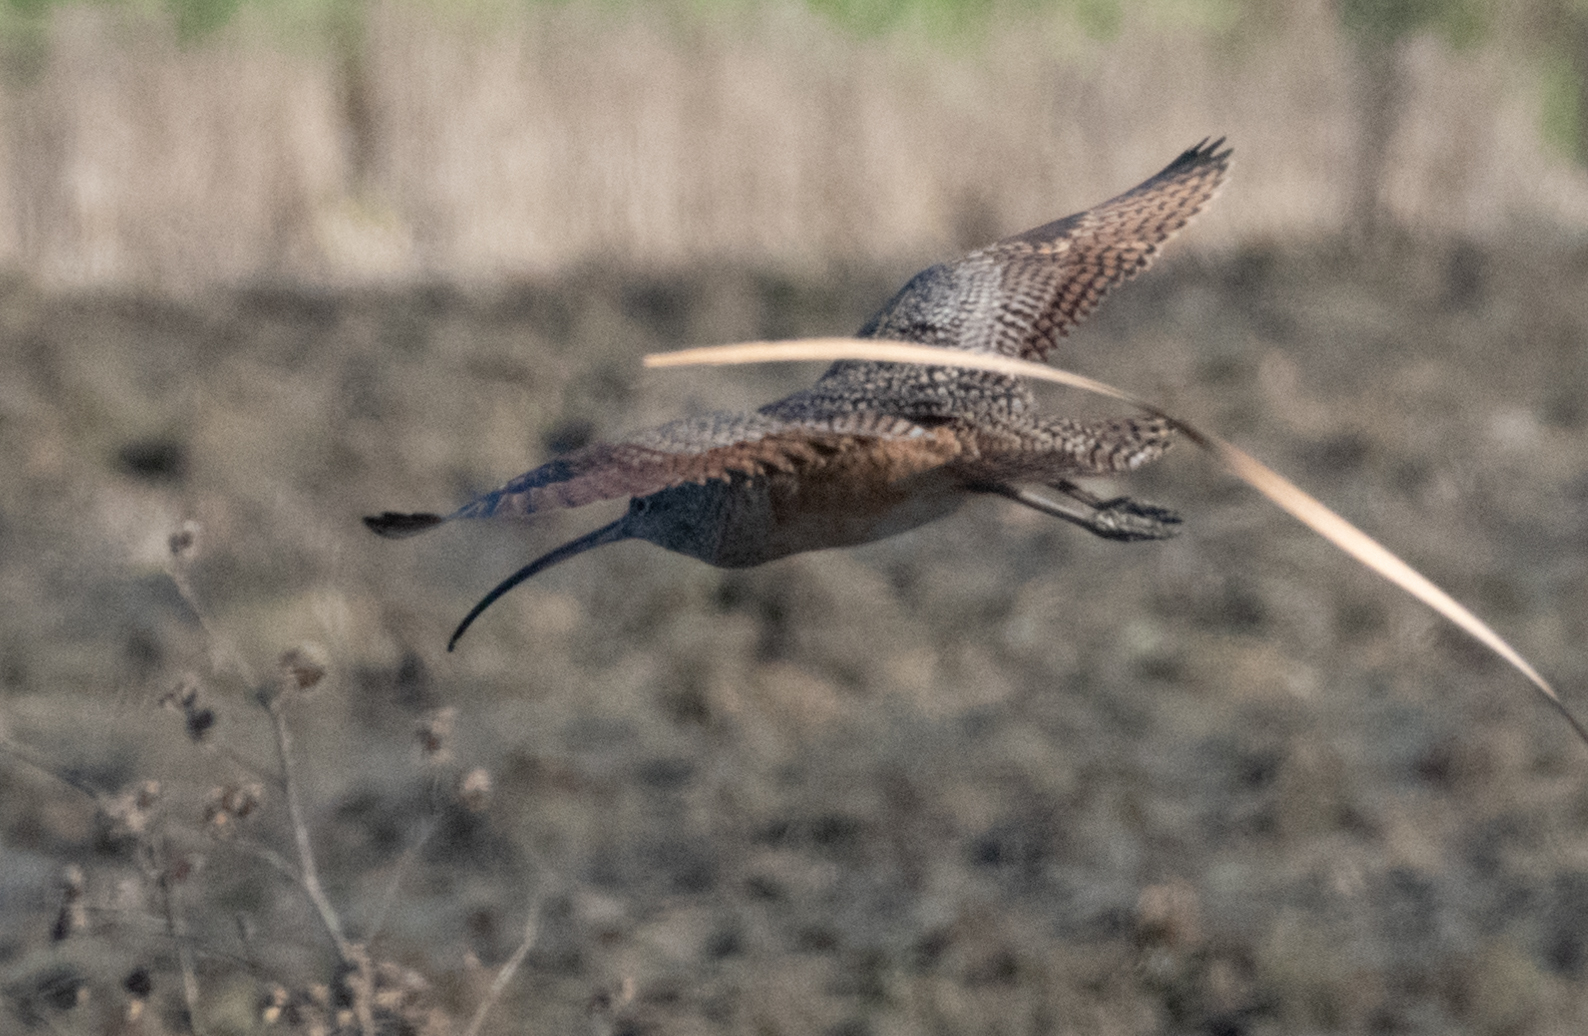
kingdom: Animalia
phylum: Chordata
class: Aves
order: Charadriiformes
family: Scolopacidae
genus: Numenius
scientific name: Numenius americanus
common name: Long-billed curlew
